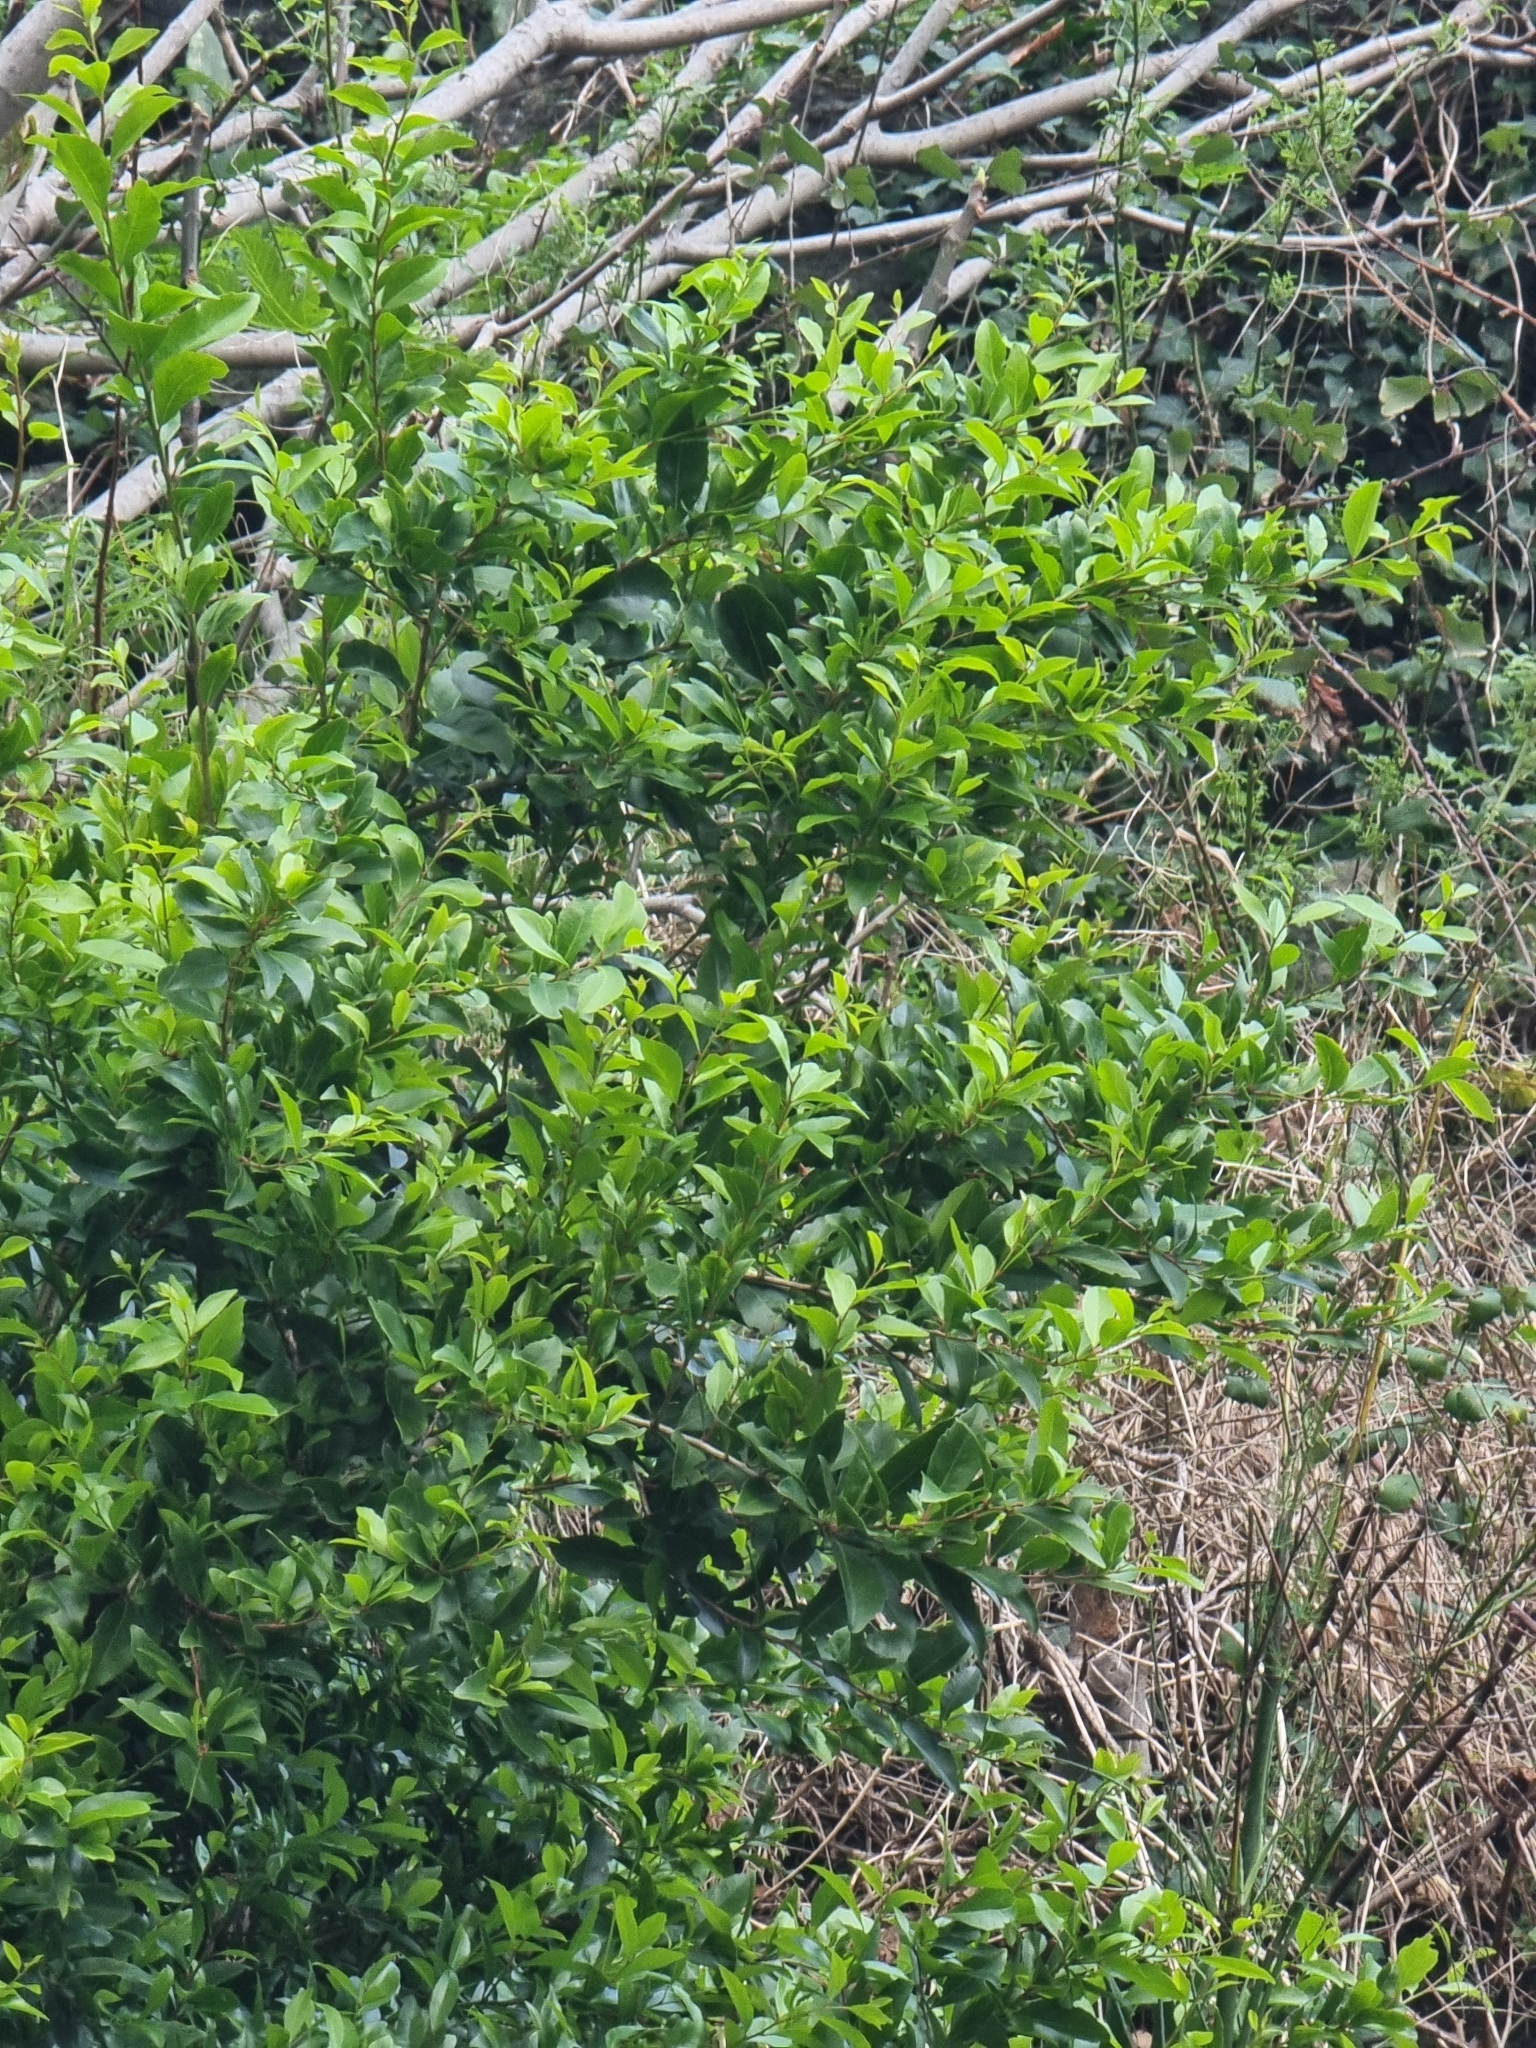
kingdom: Plantae
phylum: Tracheophyta
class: Magnoliopsida
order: Celastrales
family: Celastraceae
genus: Gymnosporia
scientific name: Gymnosporia dryandri
